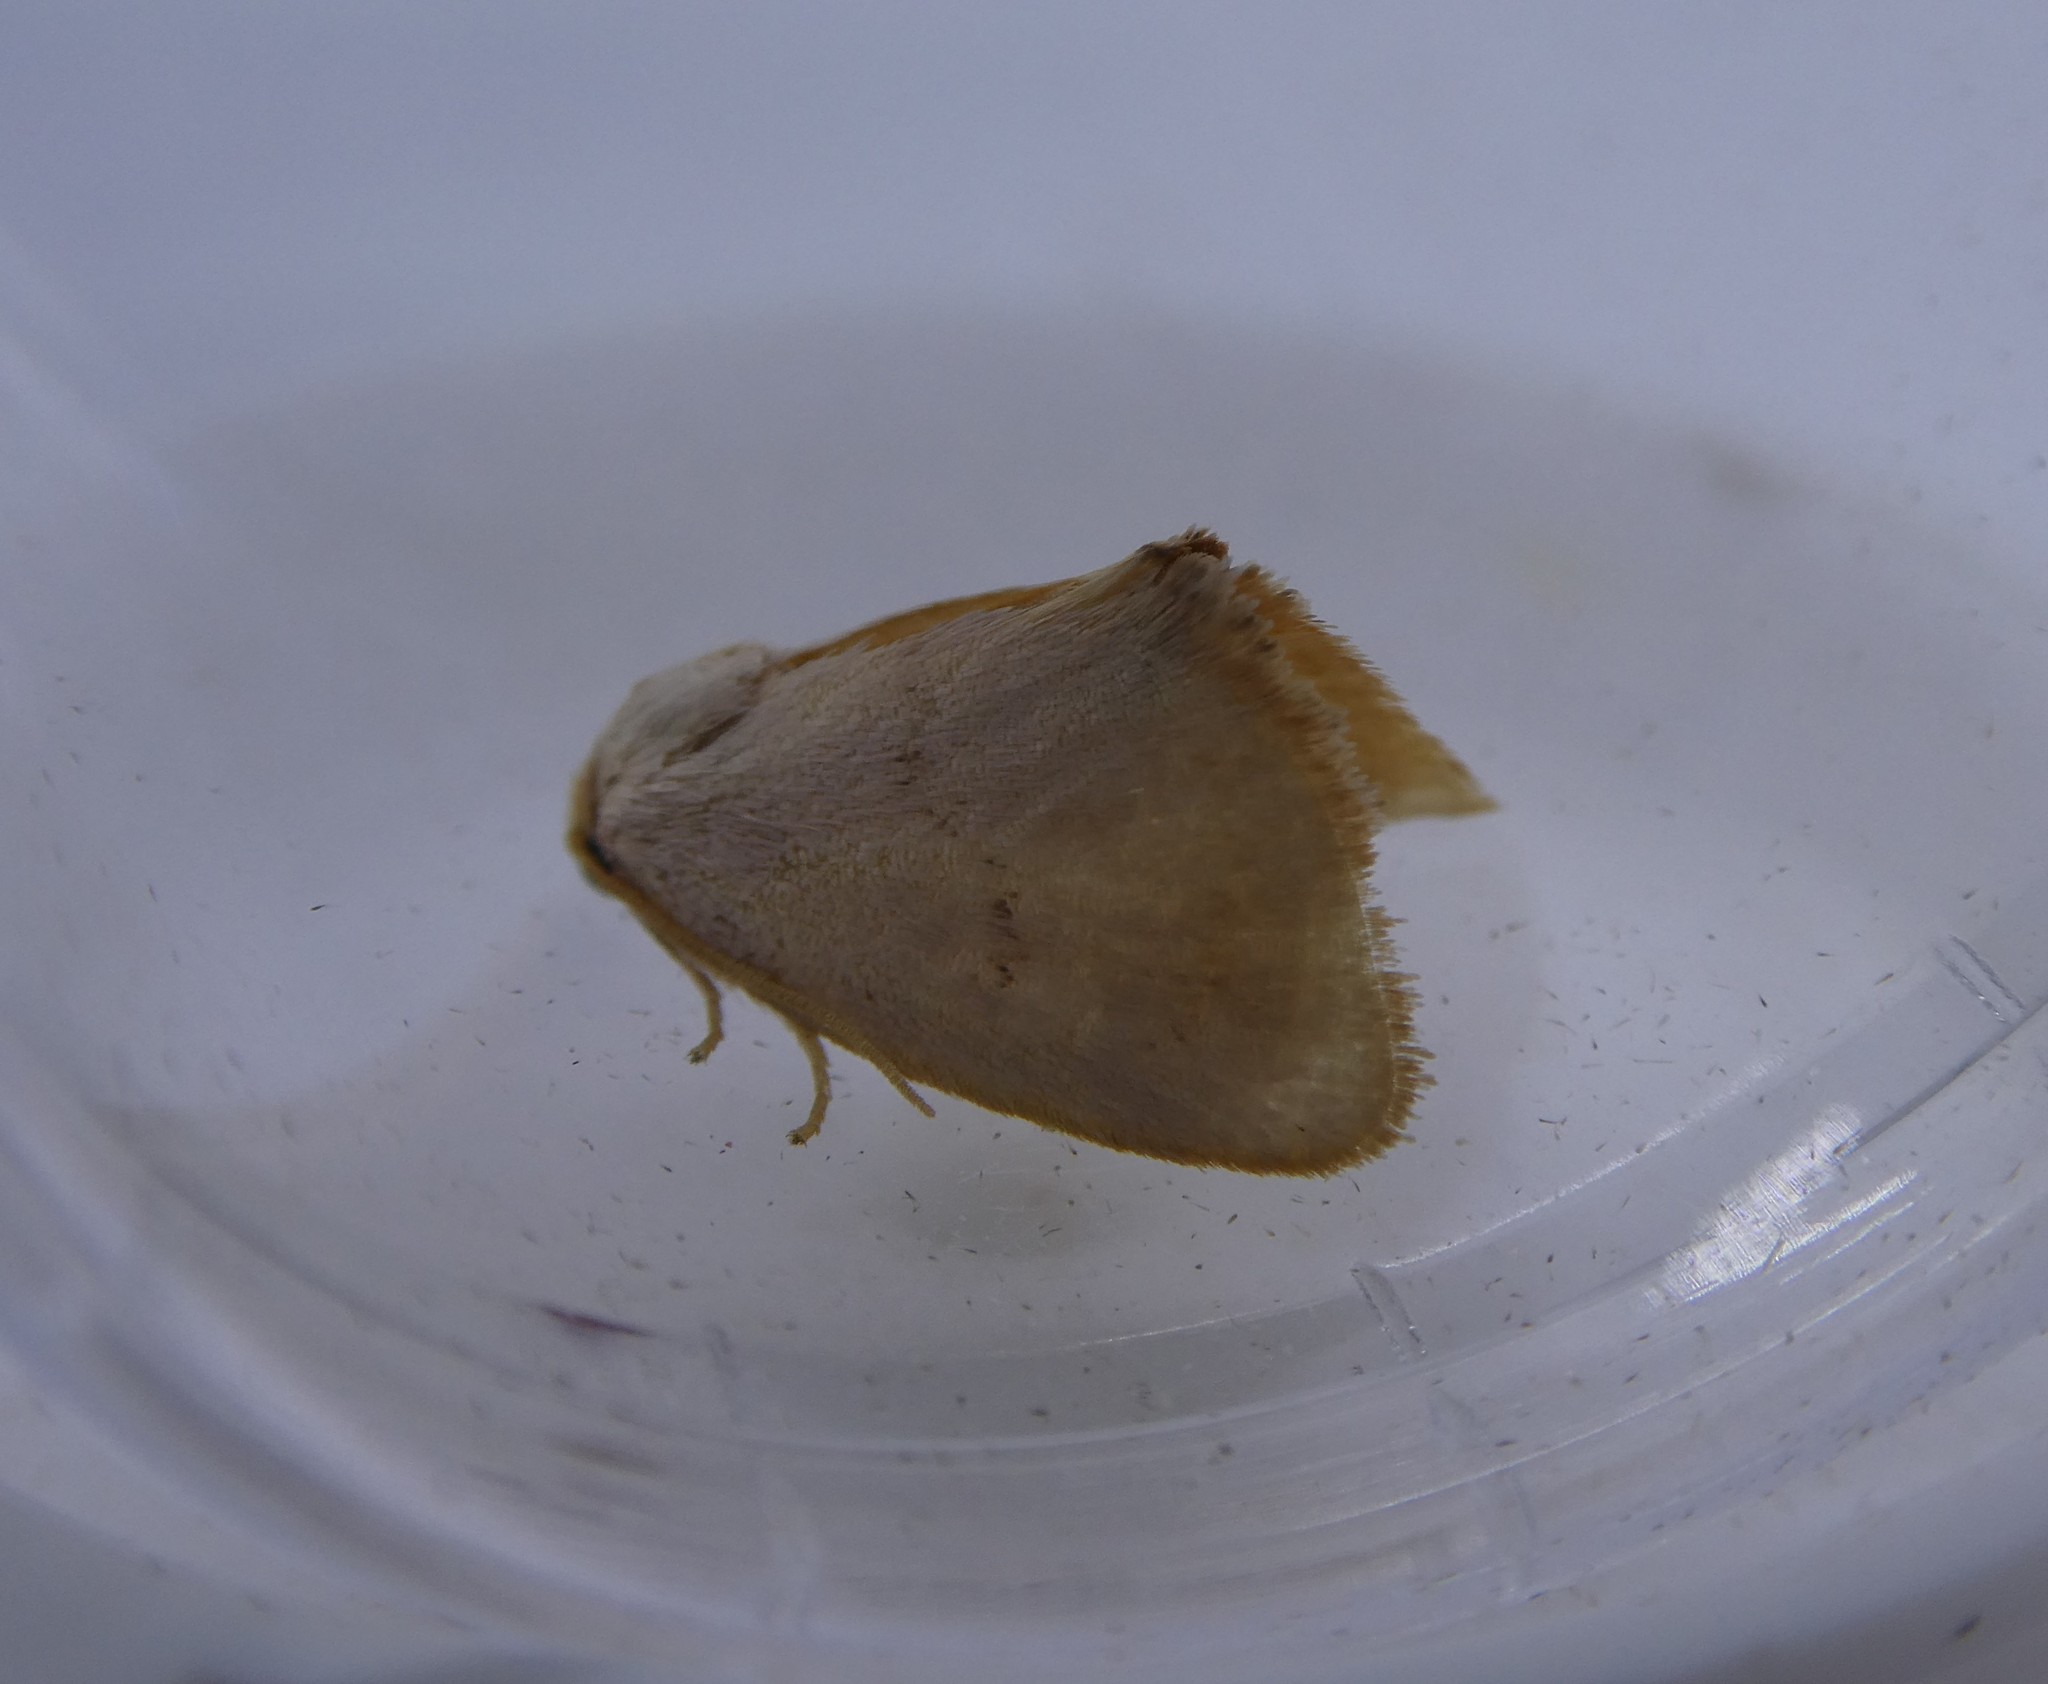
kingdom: Animalia
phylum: Arthropoda
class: Insecta
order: Lepidoptera
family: Limacodidae
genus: Tortricidia
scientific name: Tortricidia pallida
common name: Red-crossed button slug moth
